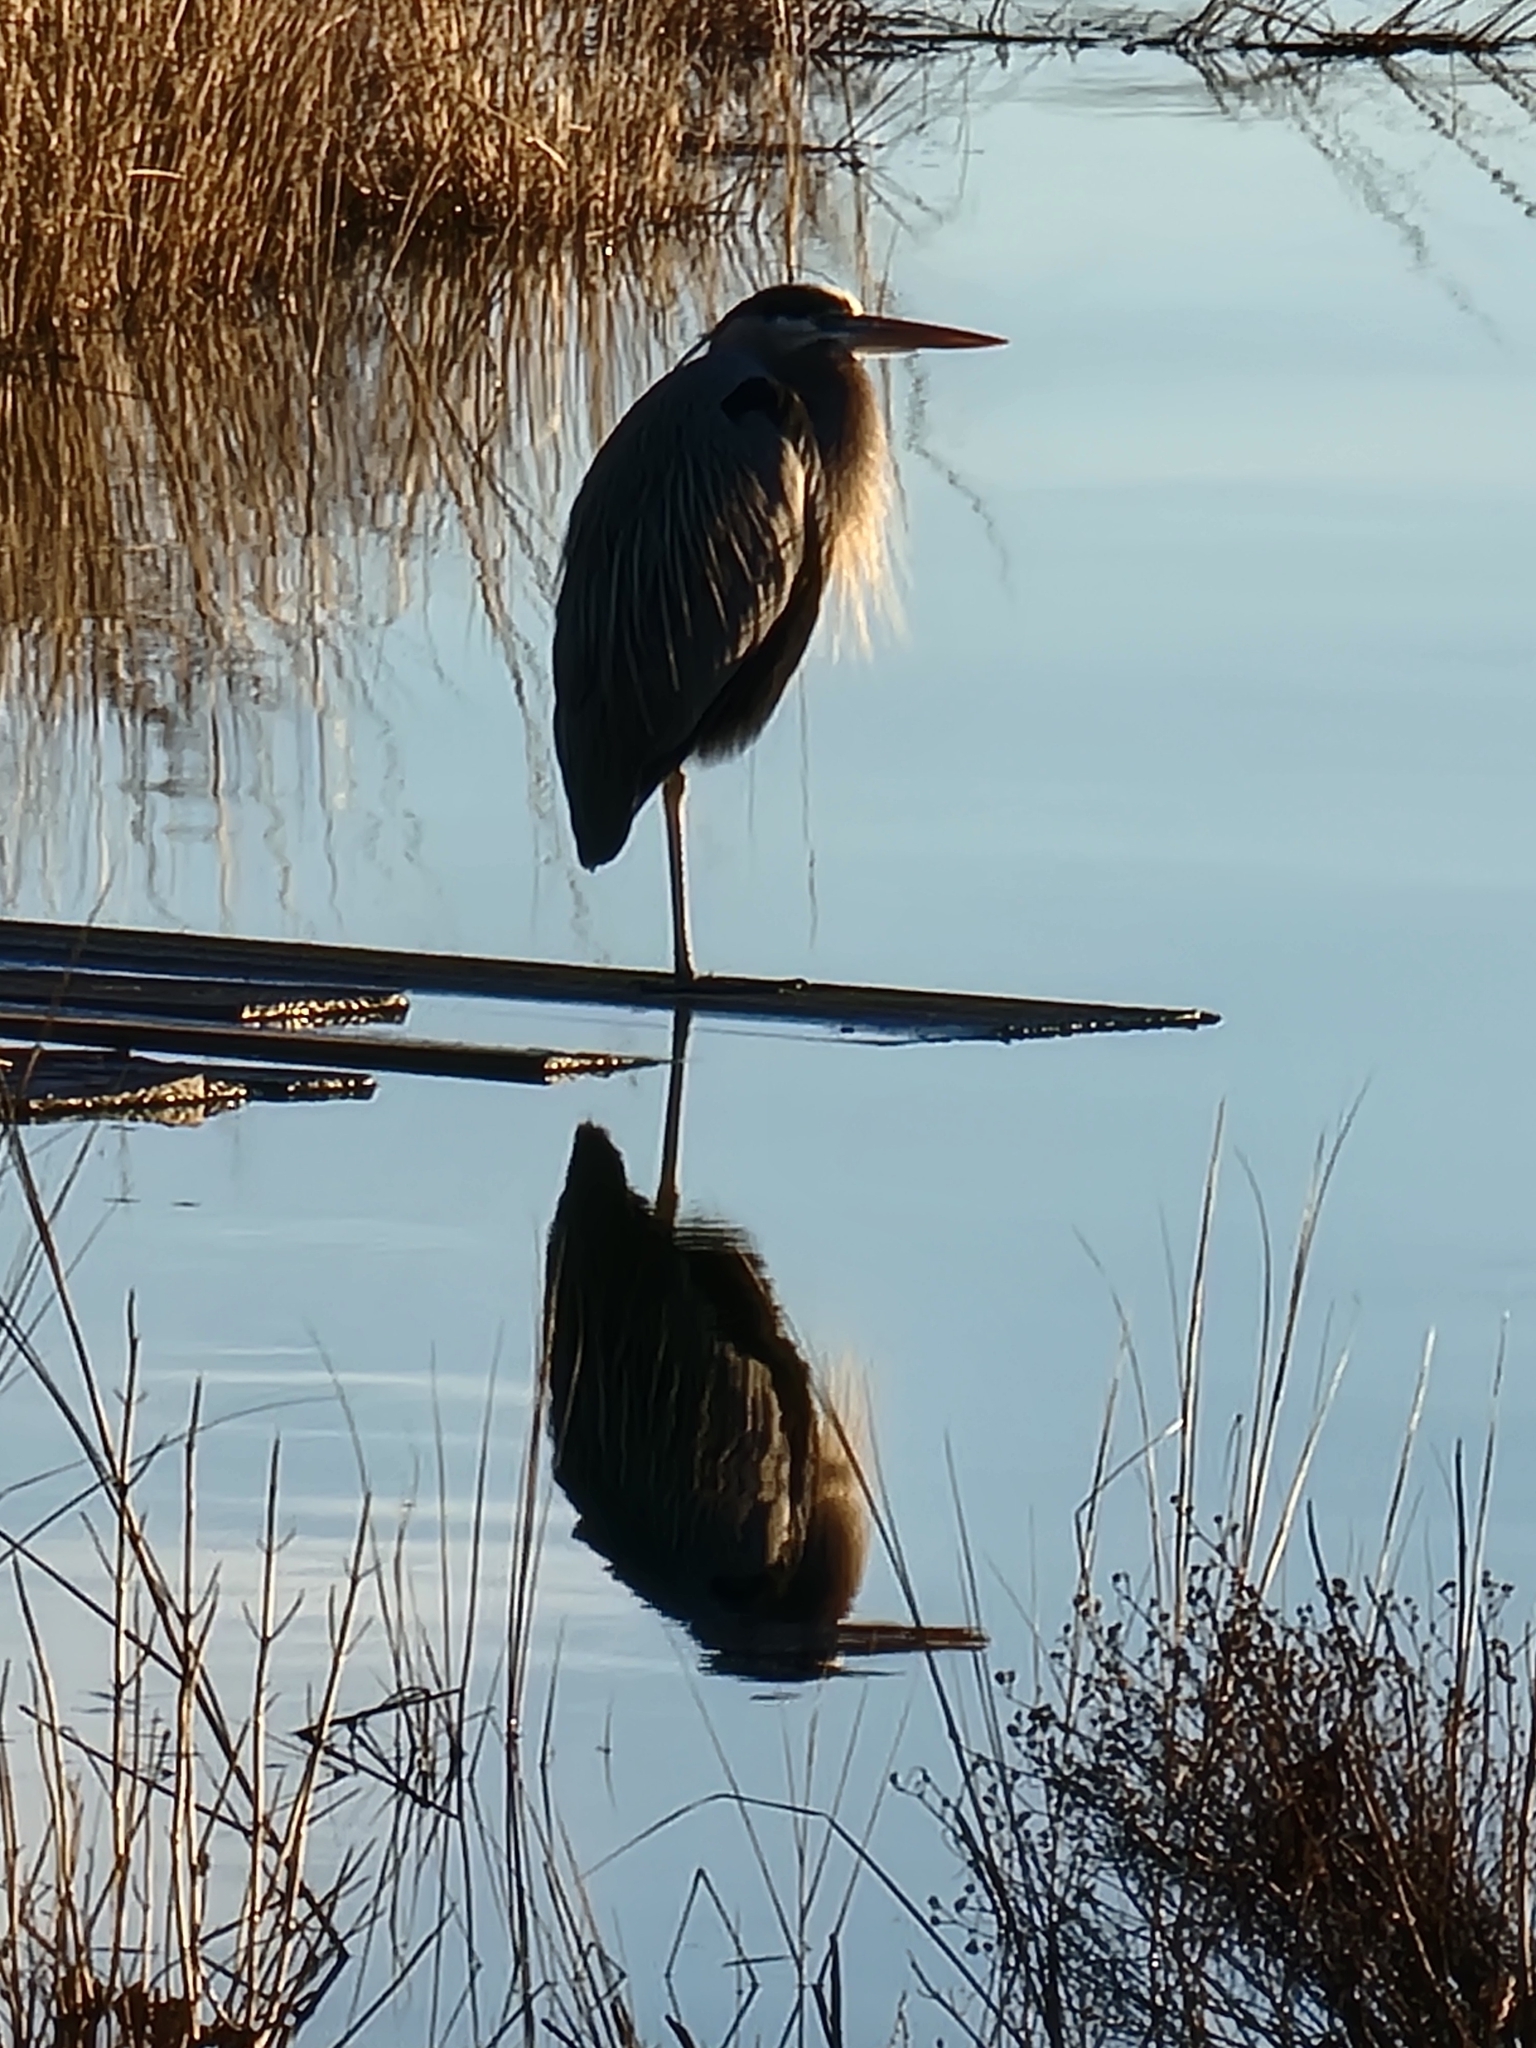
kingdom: Animalia
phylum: Chordata
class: Aves
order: Pelecaniformes
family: Ardeidae
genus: Ardea
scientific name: Ardea herodias
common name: Great blue heron
